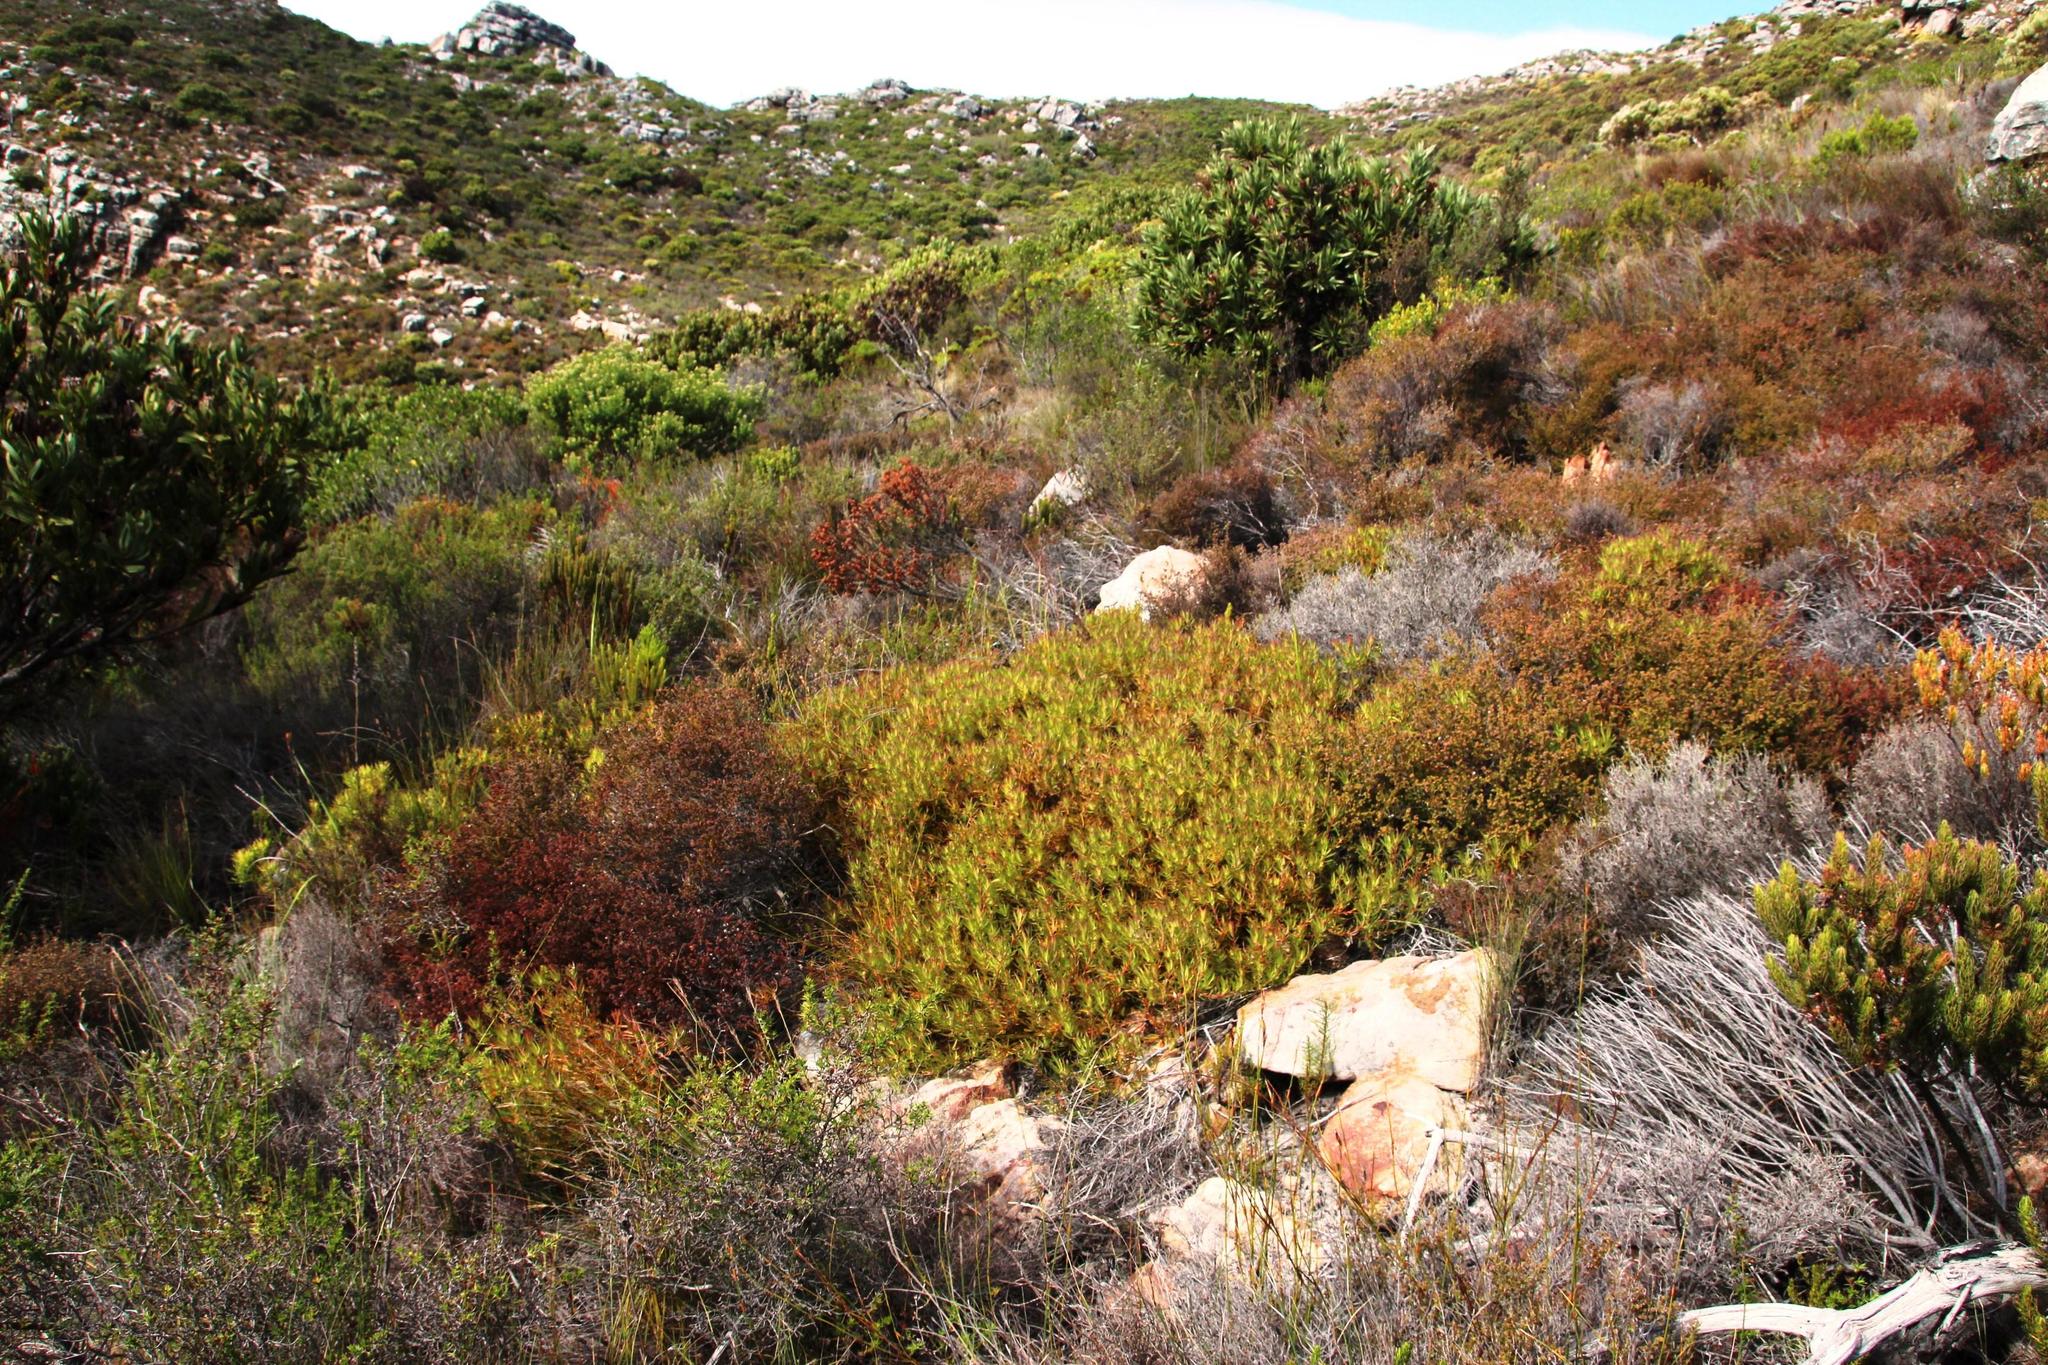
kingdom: Plantae
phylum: Tracheophyta
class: Magnoliopsida
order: Proteales
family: Proteaceae
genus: Leucadendron
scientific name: Leucadendron salignum
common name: Common sunshine conebush
